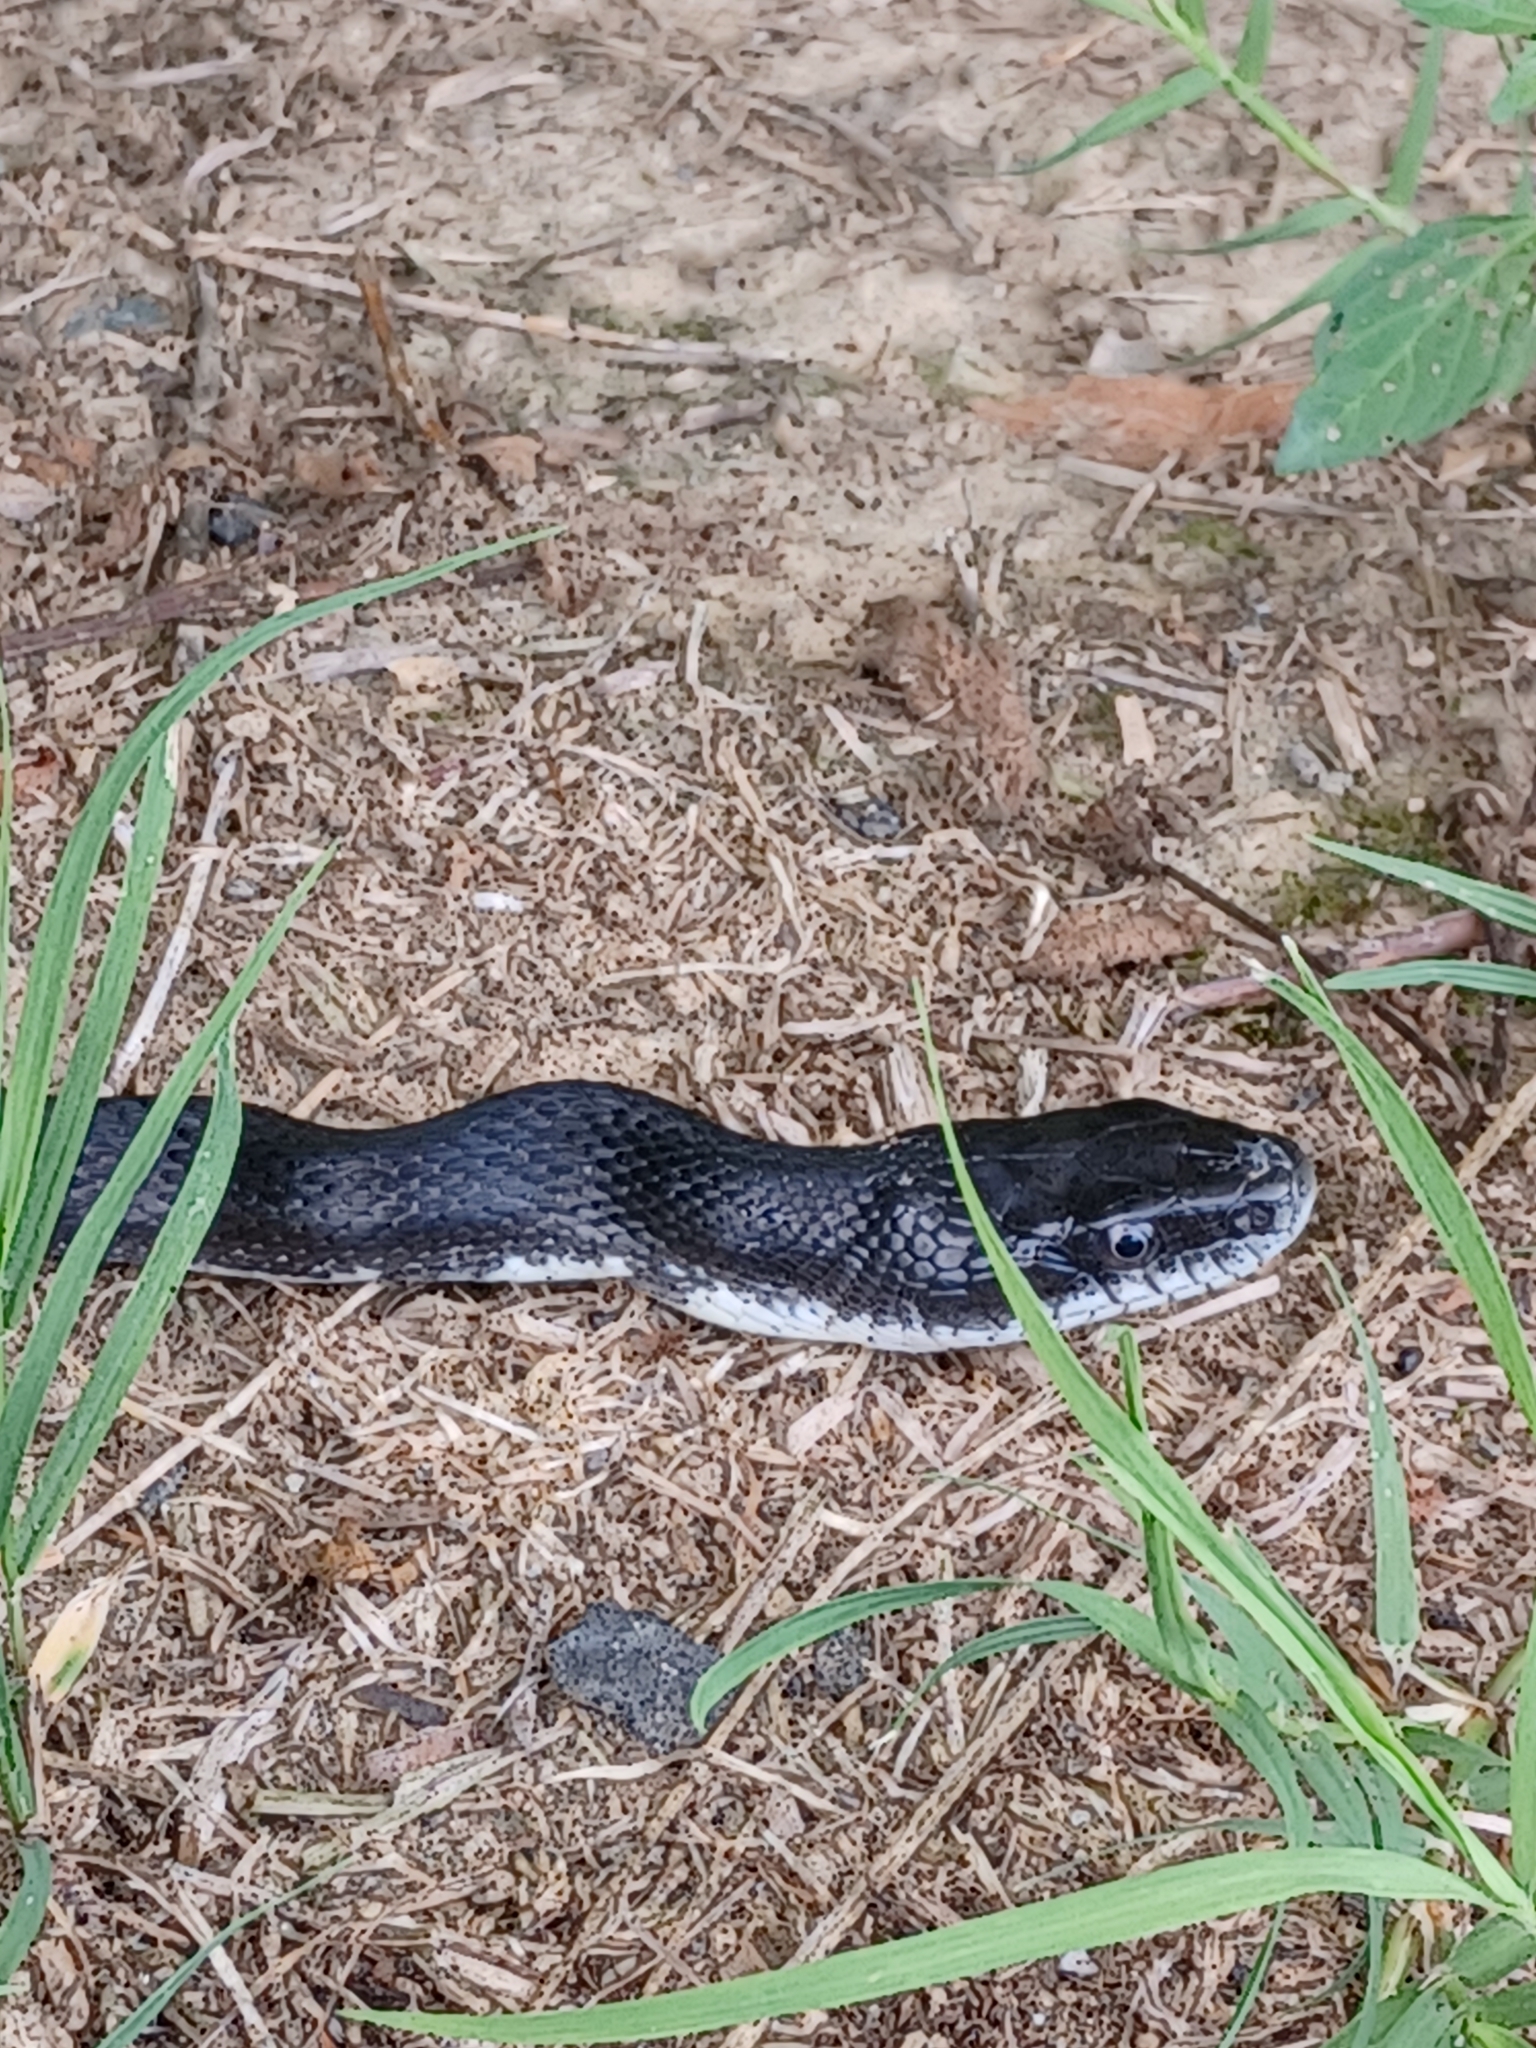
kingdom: Animalia
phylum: Chordata
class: Squamata
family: Colubridae
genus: Pantherophis
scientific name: Pantherophis alleghaniensis
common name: Eastern rat snake
